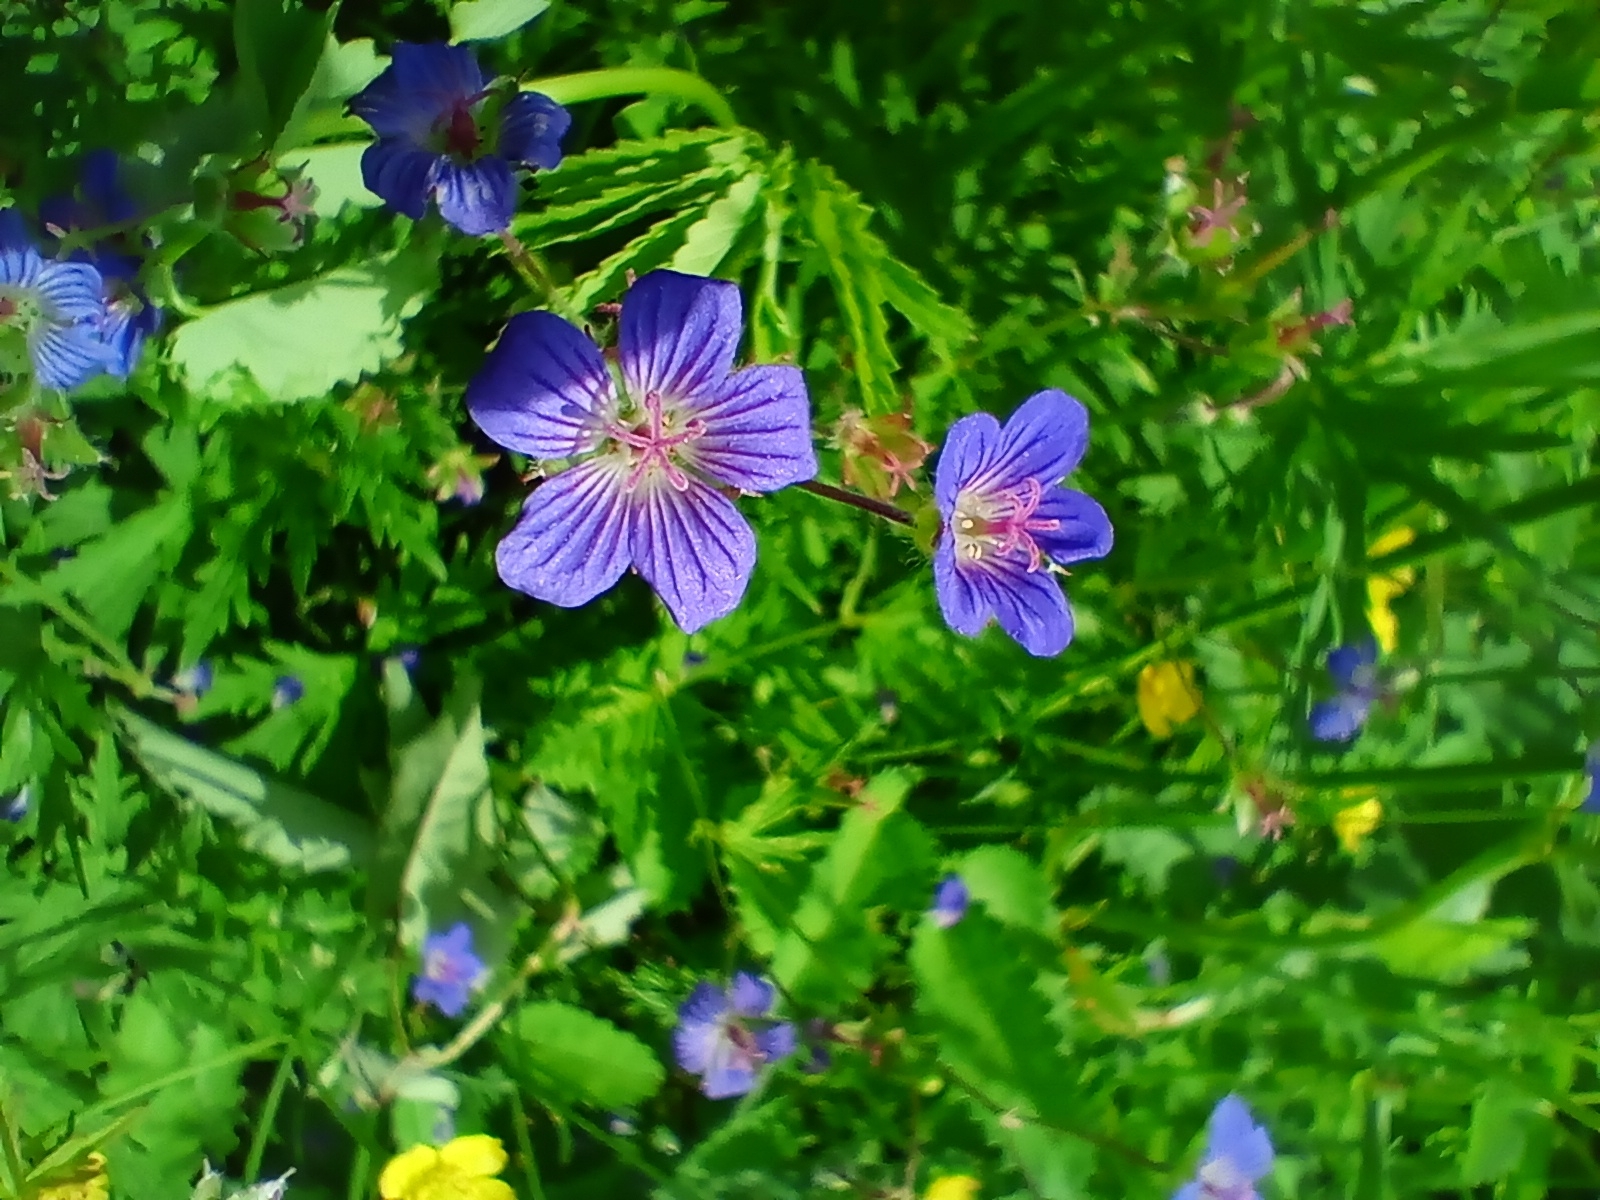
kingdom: Plantae
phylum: Tracheophyta
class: Magnoliopsida
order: Geraniales
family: Geraniaceae
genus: Geranium
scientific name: Geranium pseudosibiricum
